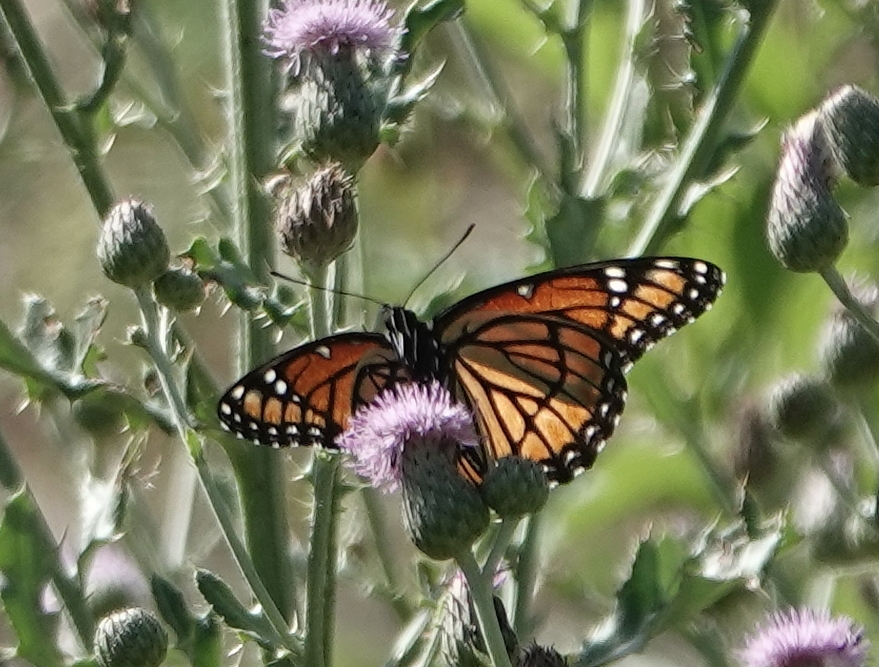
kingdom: Animalia
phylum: Arthropoda
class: Insecta
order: Lepidoptera
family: Nymphalidae
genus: Limenitis
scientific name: Limenitis archippus
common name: Viceroy
